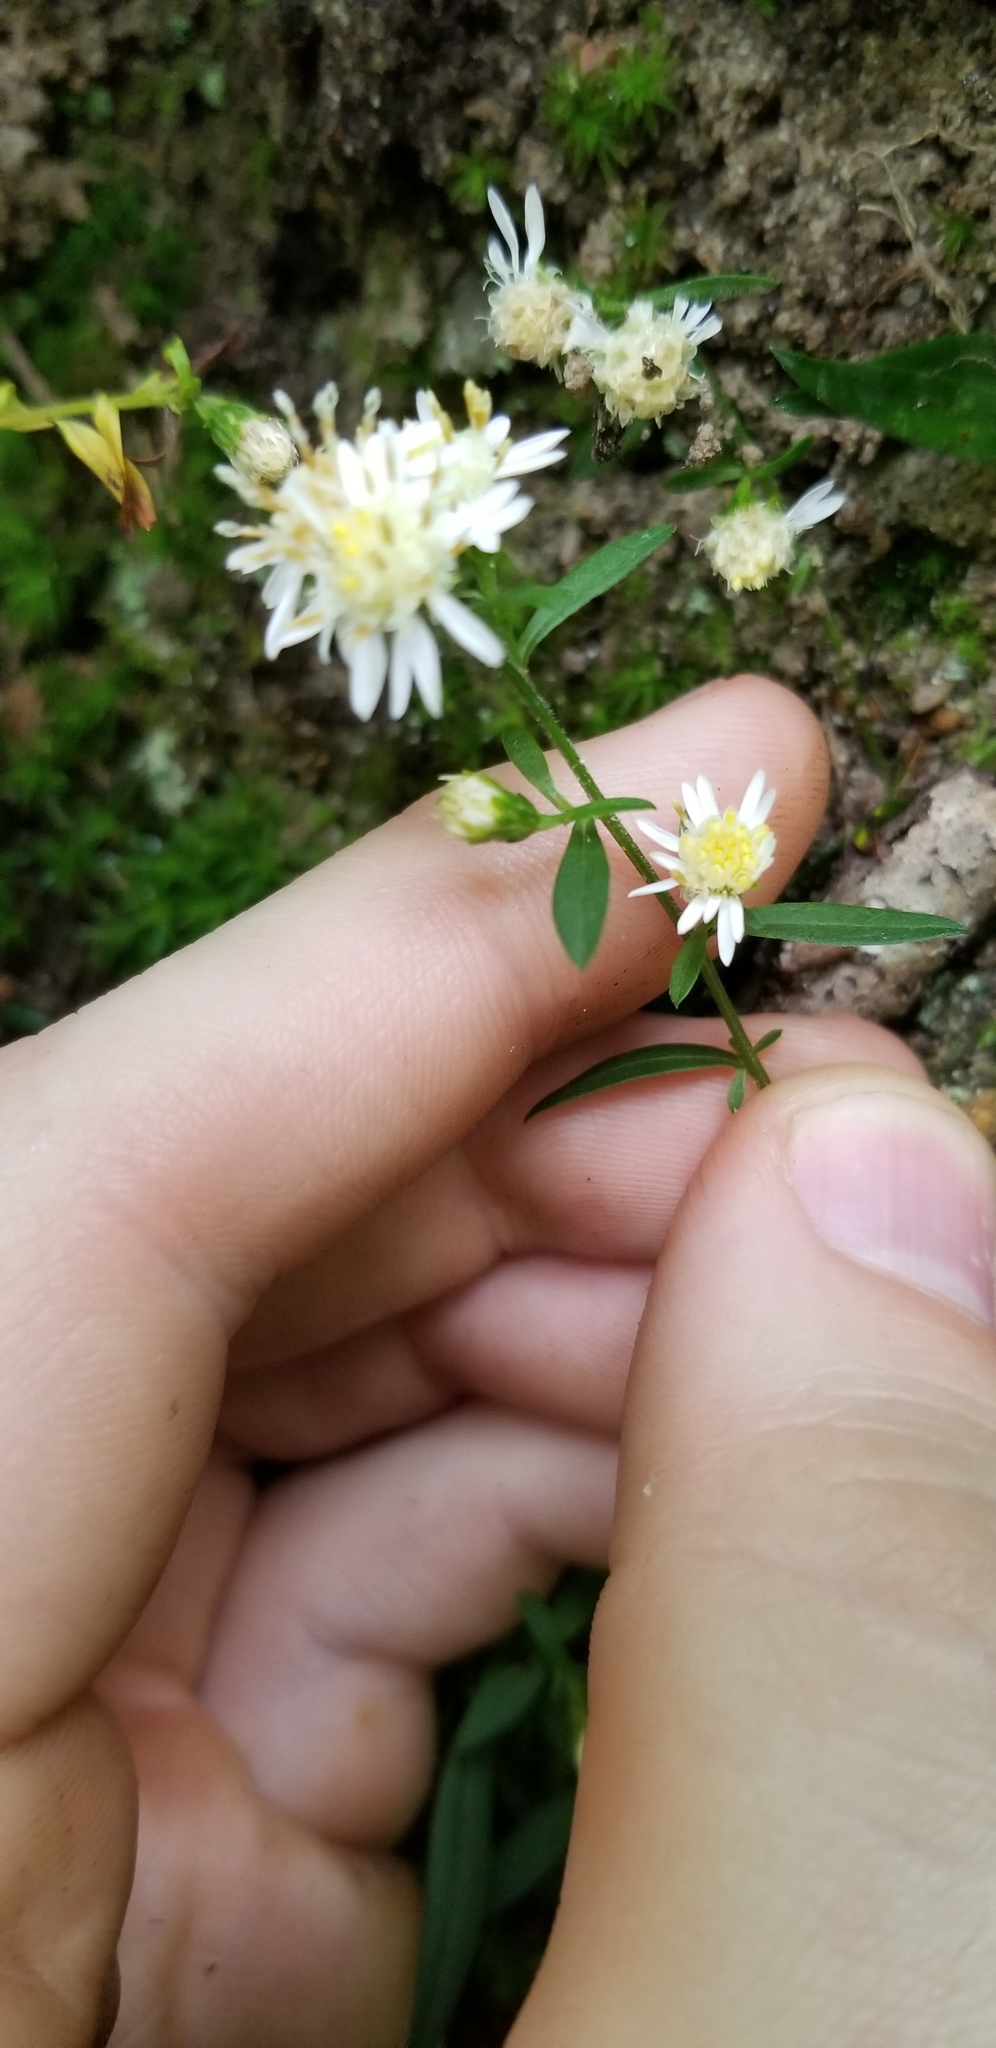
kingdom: Plantae
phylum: Tracheophyta
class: Magnoliopsida
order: Asterales
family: Asteraceae
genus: Symphyotrichum
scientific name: Symphyotrichum lateriflorum
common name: Calico aster
